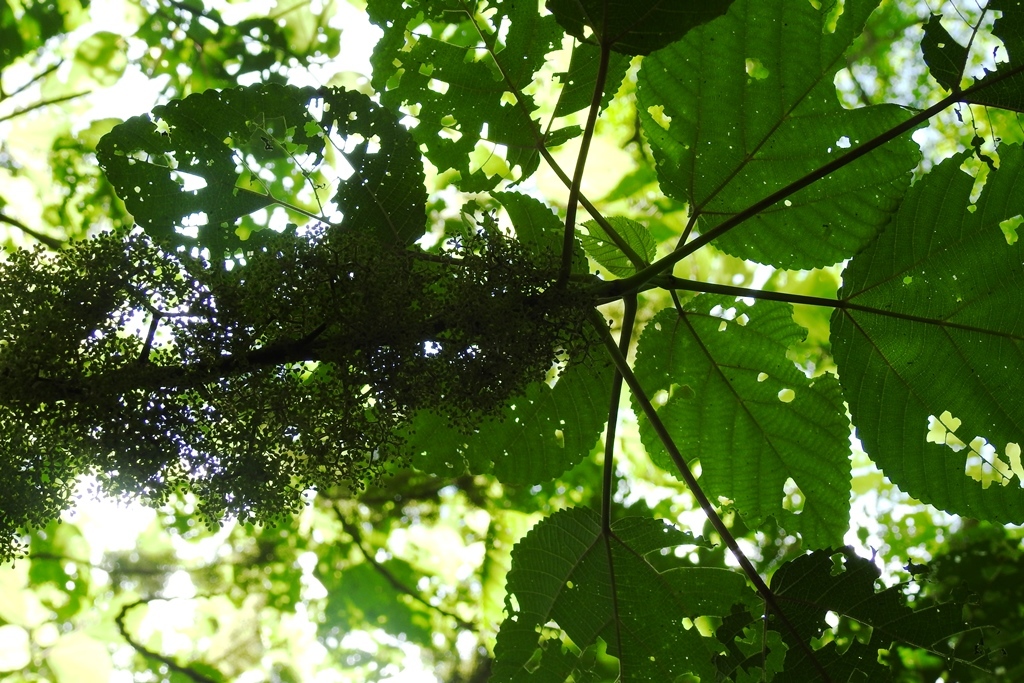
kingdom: Plantae
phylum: Tracheophyta
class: Magnoliopsida
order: Rosales
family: Urticaceae
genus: Urera
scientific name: Urera caracasana
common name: Flameberry
